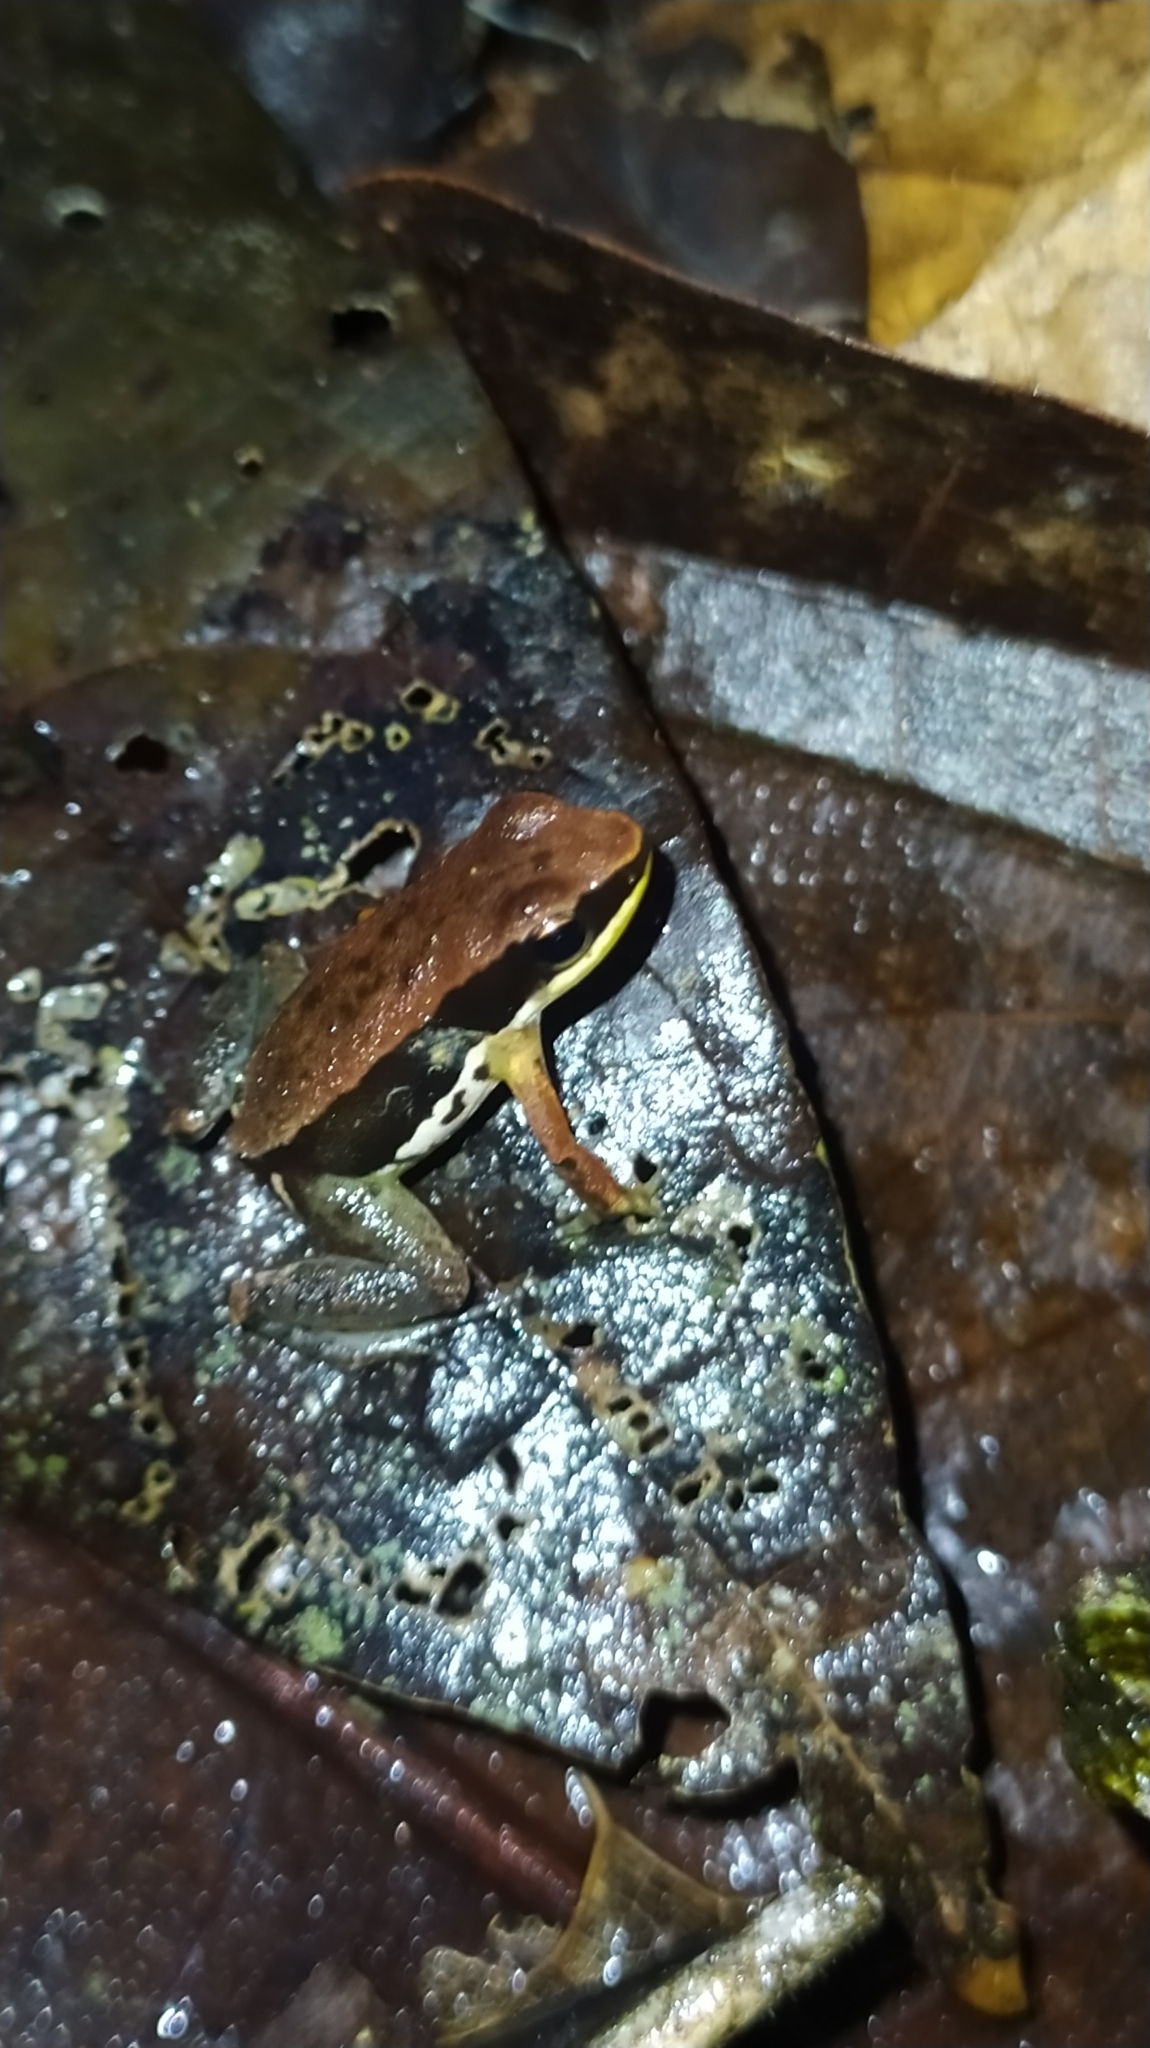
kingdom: Animalia
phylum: Chordata
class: Amphibia
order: Anura
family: Aromobatidae
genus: Allobates
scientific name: Allobates granti
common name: Black-flanked poison frog
